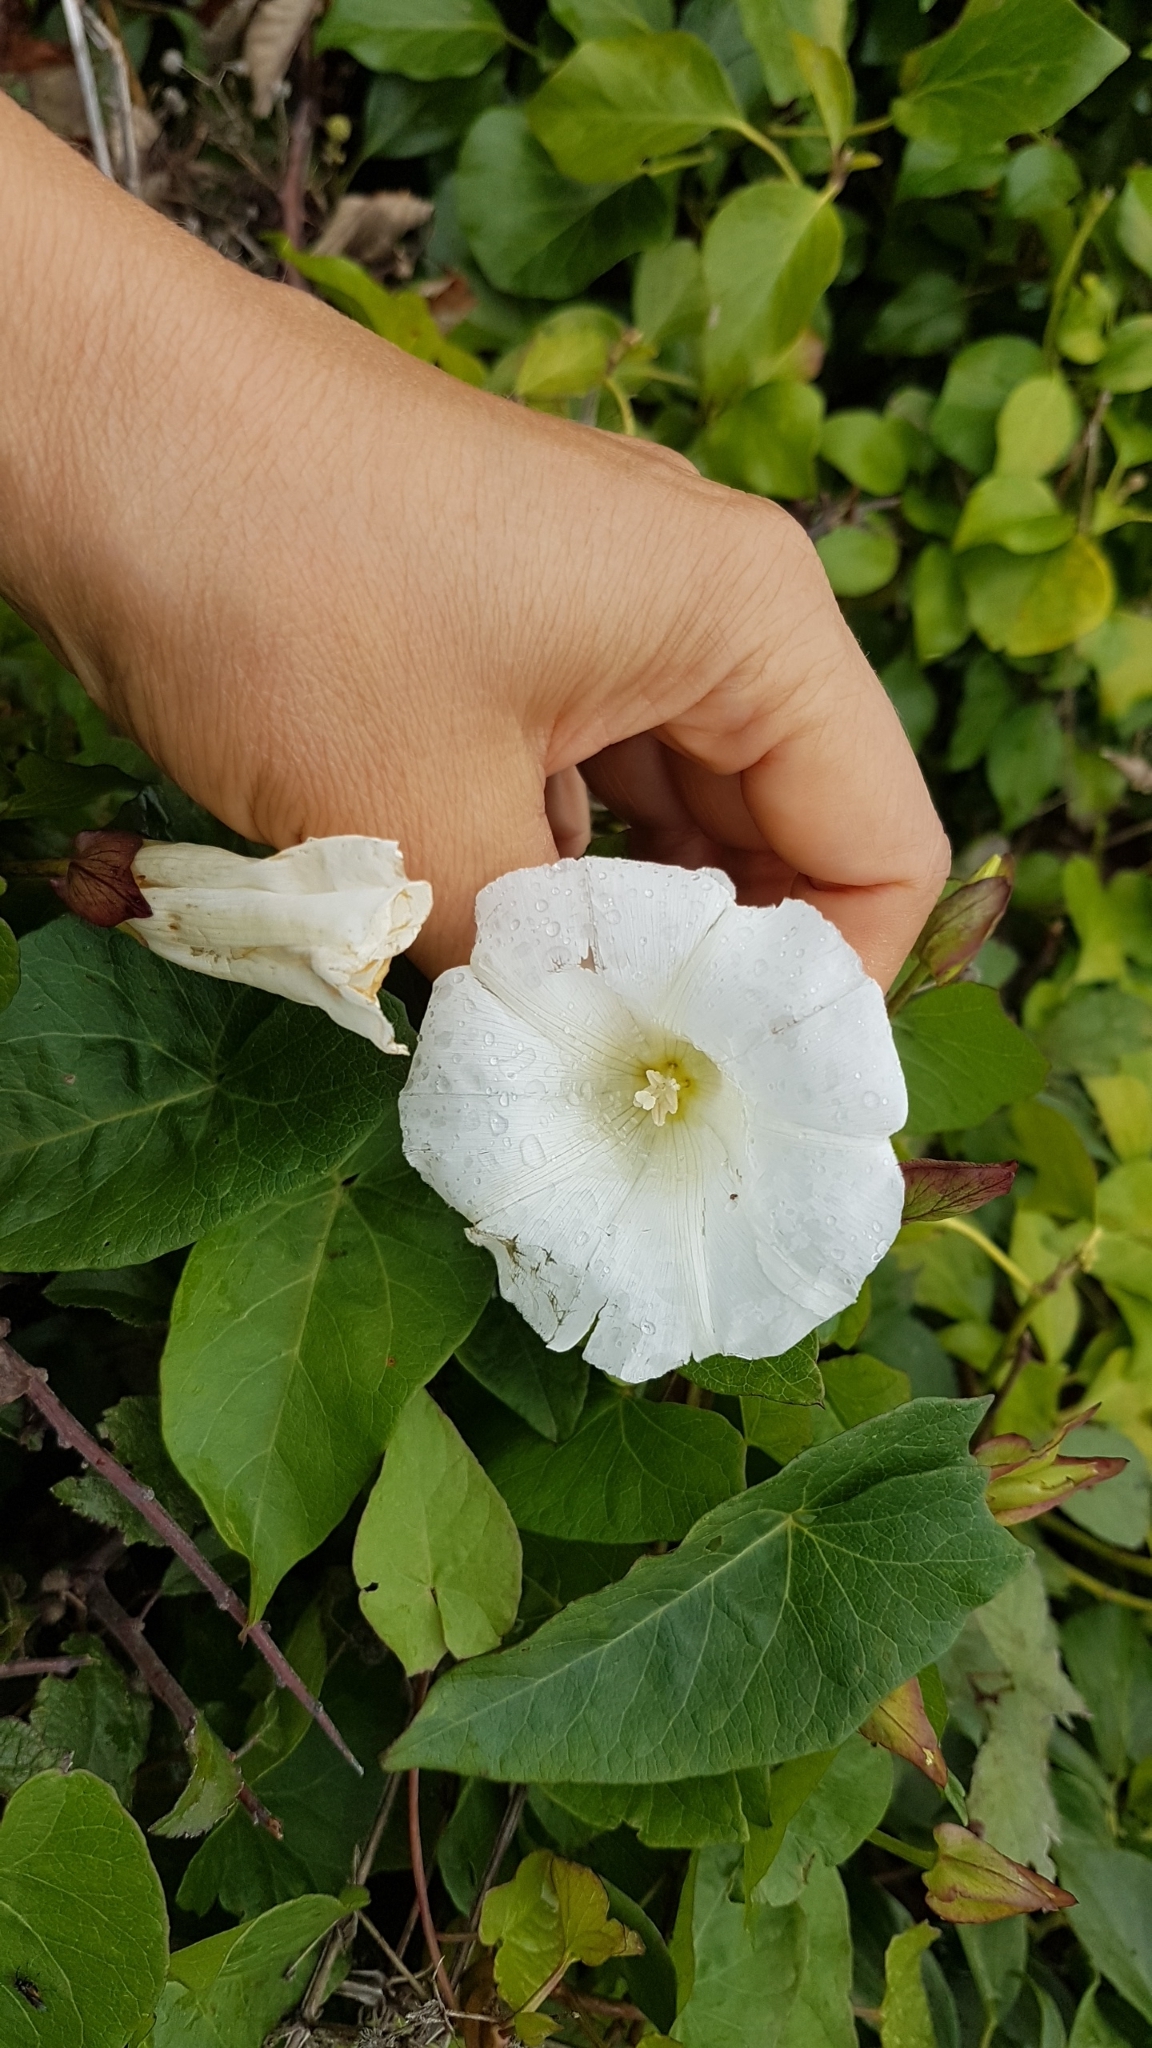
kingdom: Plantae
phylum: Tracheophyta
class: Magnoliopsida
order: Solanales
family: Convolvulaceae
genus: Calystegia
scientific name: Calystegia sepium
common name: Hedge bindweed
